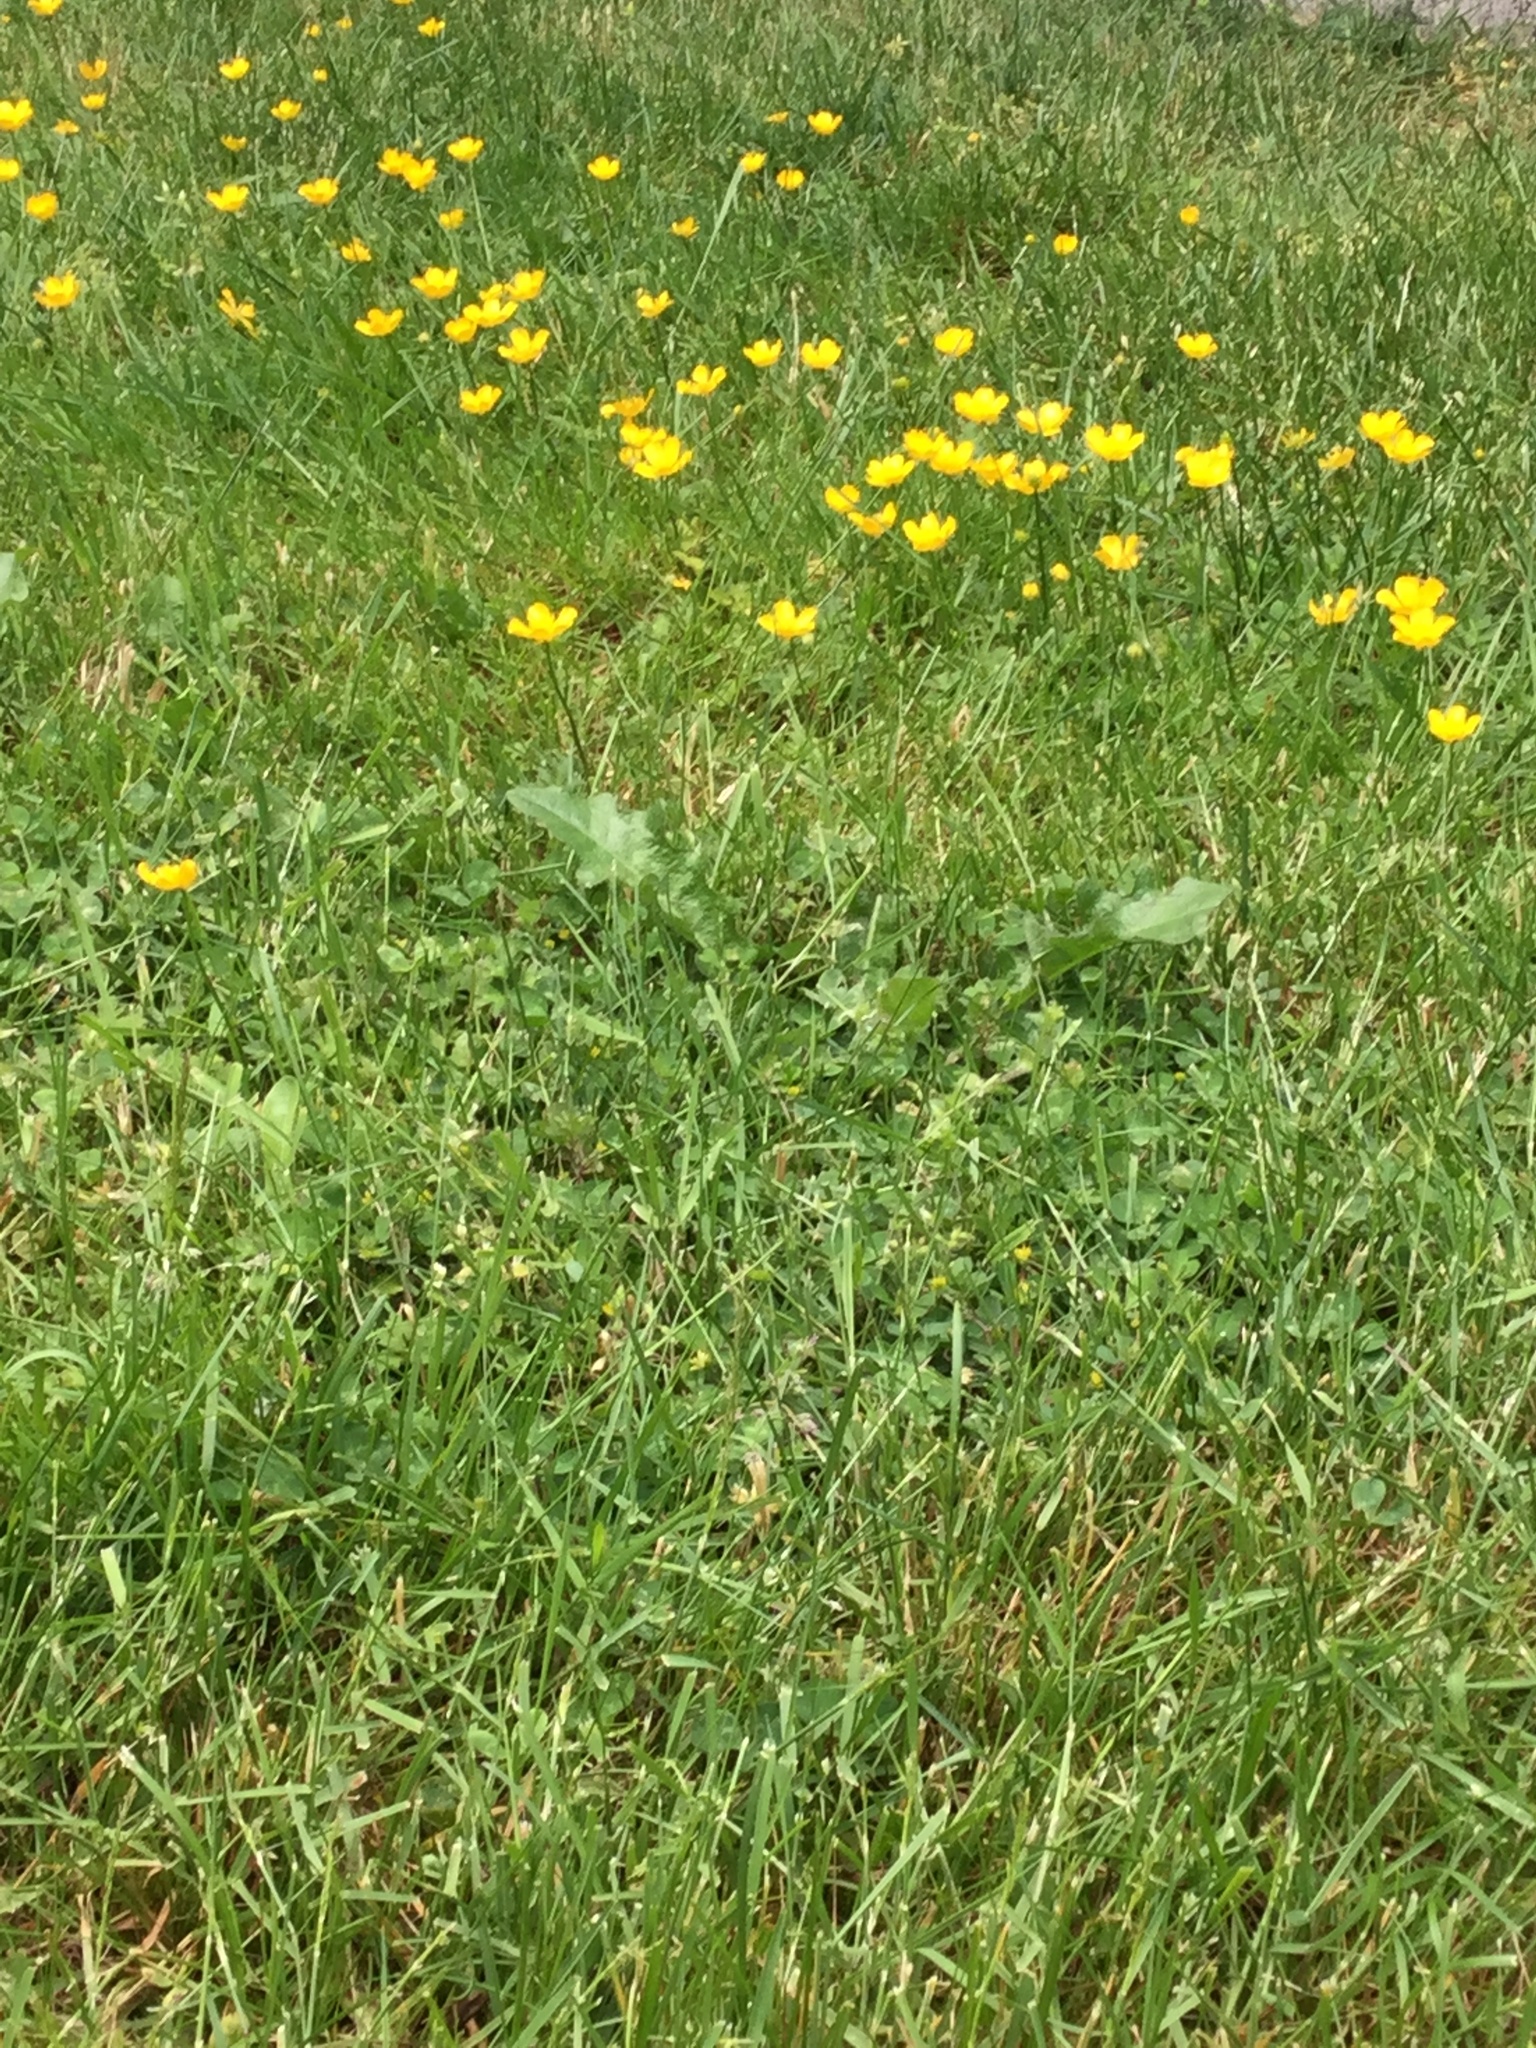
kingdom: Plantae
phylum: Tracheophyta
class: Magnoliopsida
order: Ranunculales
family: Ranunculaceae
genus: Ranunculus
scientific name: Ranunculus repens
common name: Creeping buttercup
